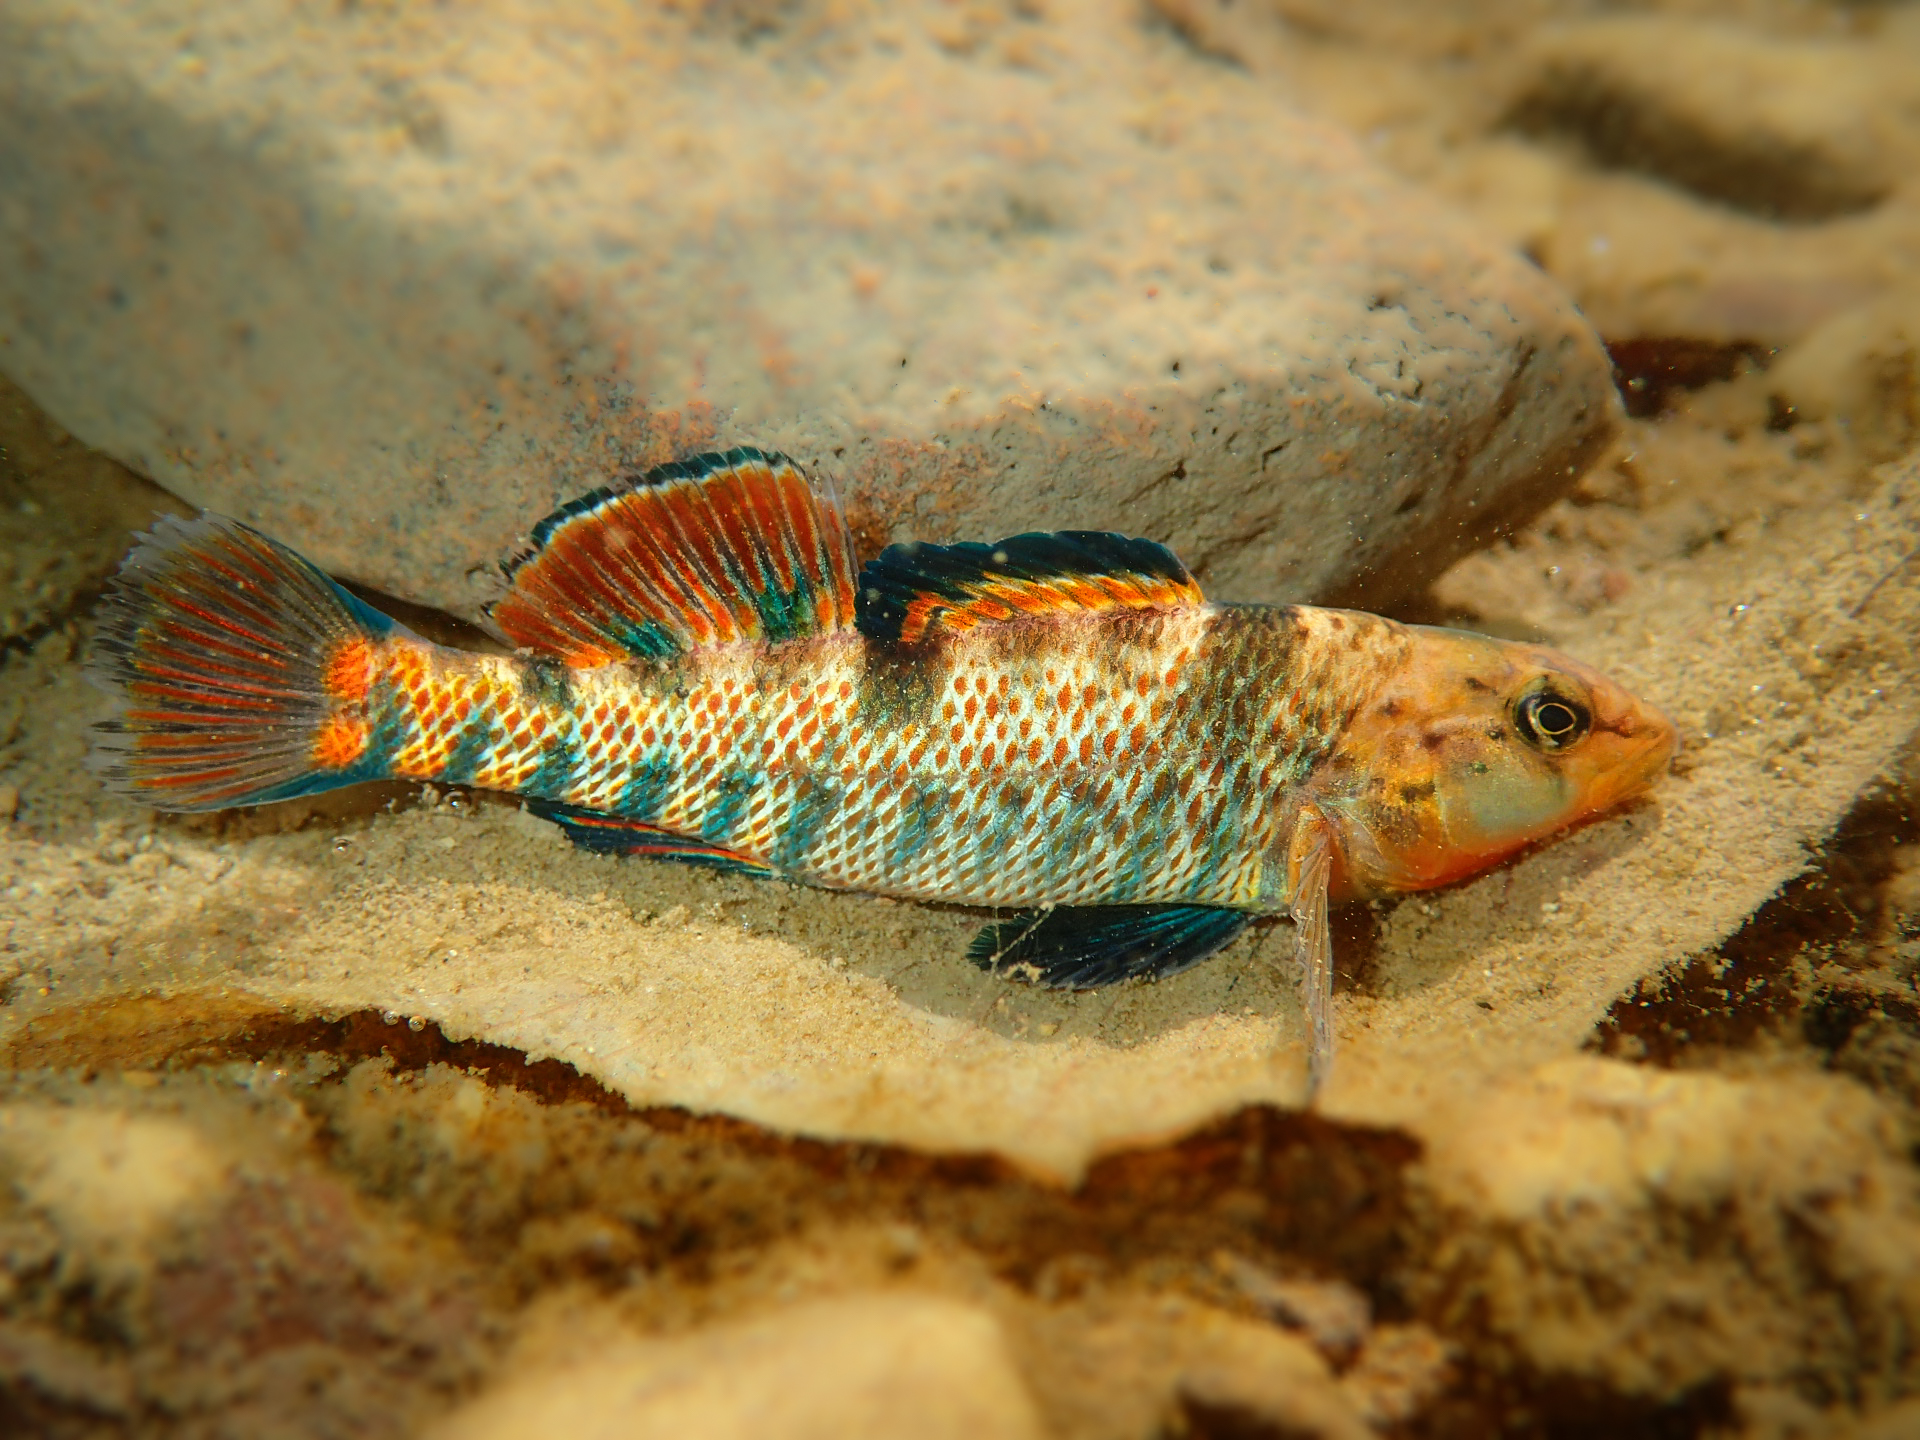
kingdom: Animalia
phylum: Chordata
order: Perciformes
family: Percidae
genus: Etheostoma
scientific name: Etheostoma caeruleum
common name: Rainbow darter
